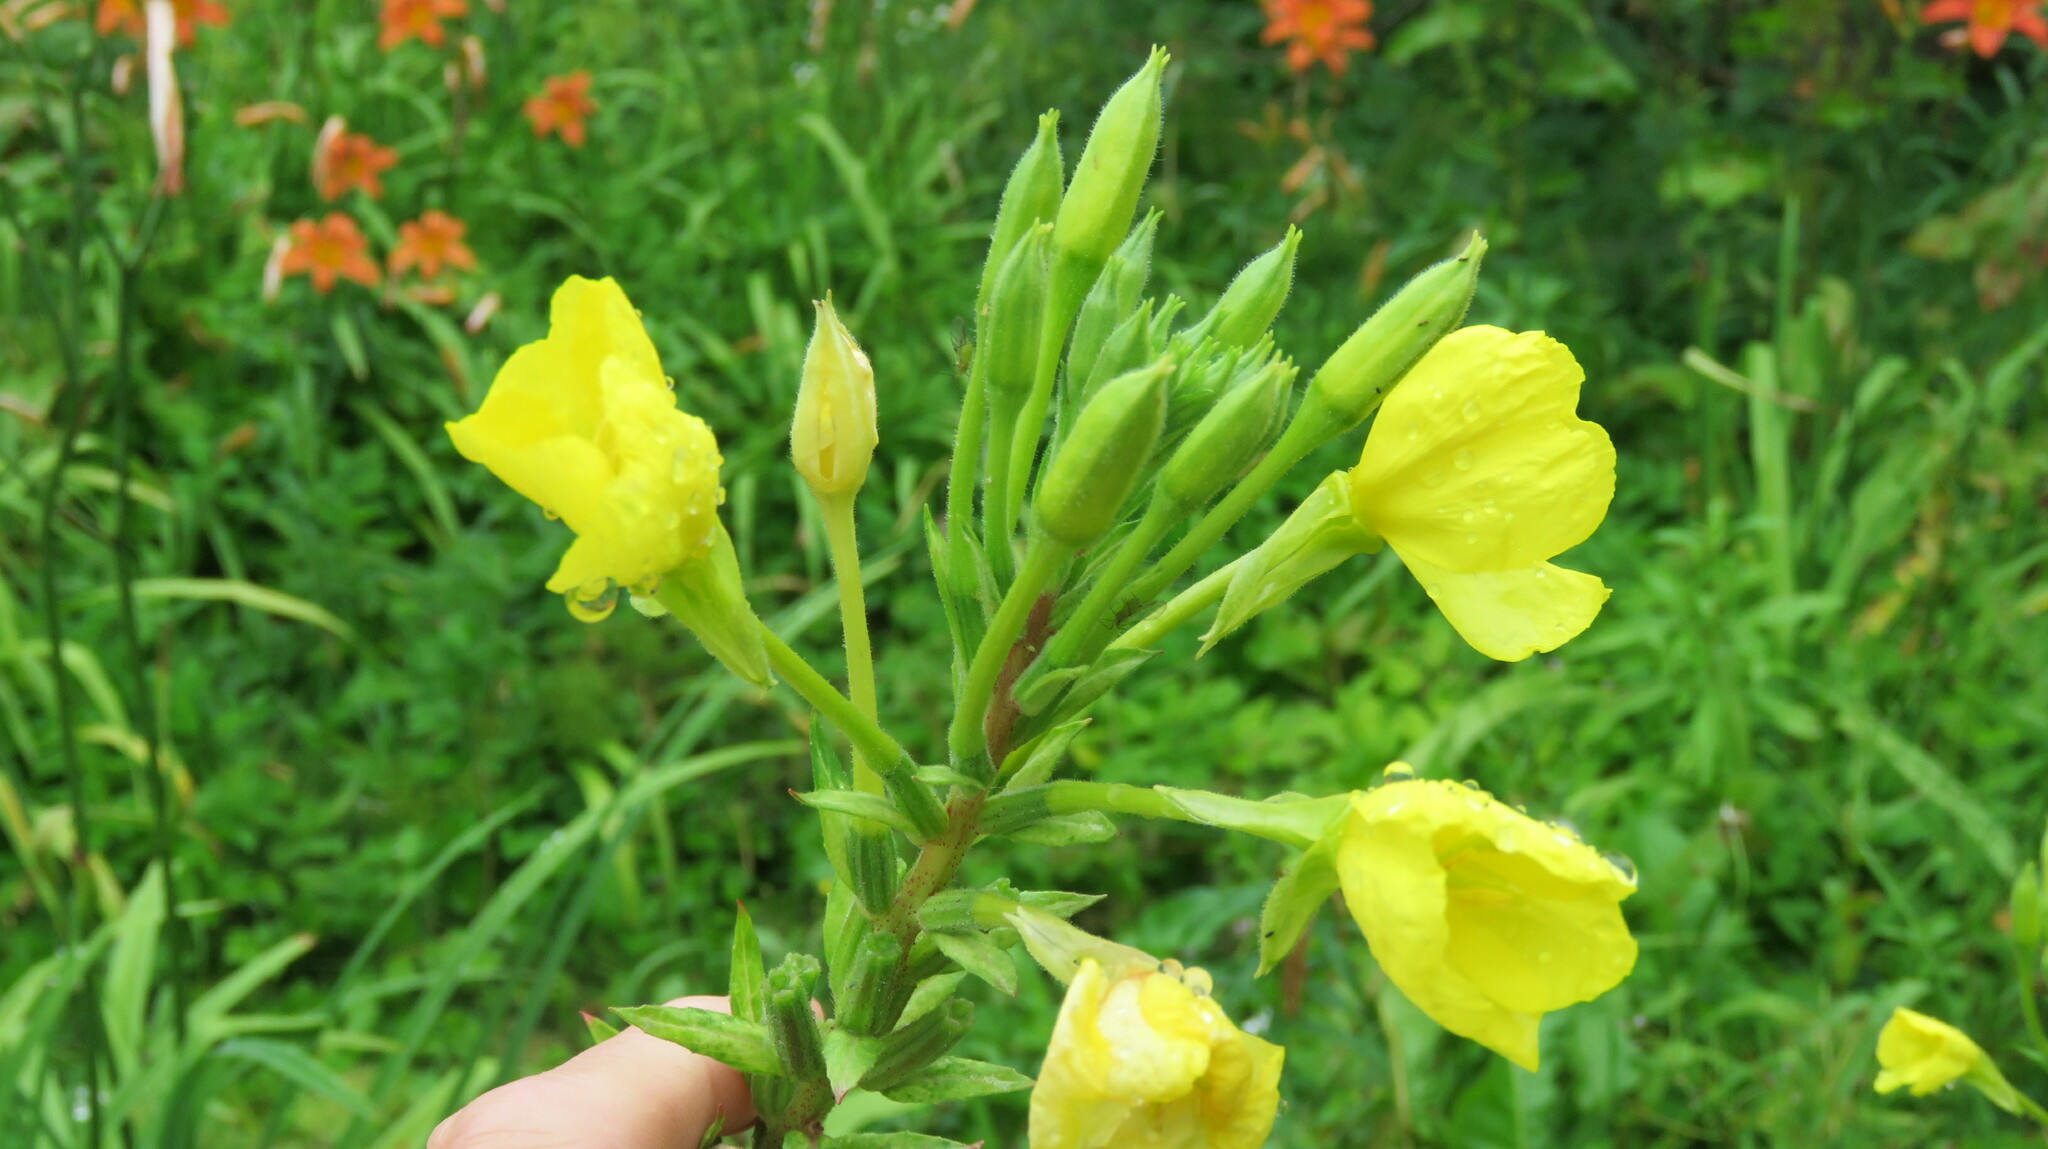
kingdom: Plantae
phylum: Tracheophyta
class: Magnoliopsida
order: Myrtales
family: Onagraceae
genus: Oenothera
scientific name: Oenothera biennis
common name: Common evening-primrose
